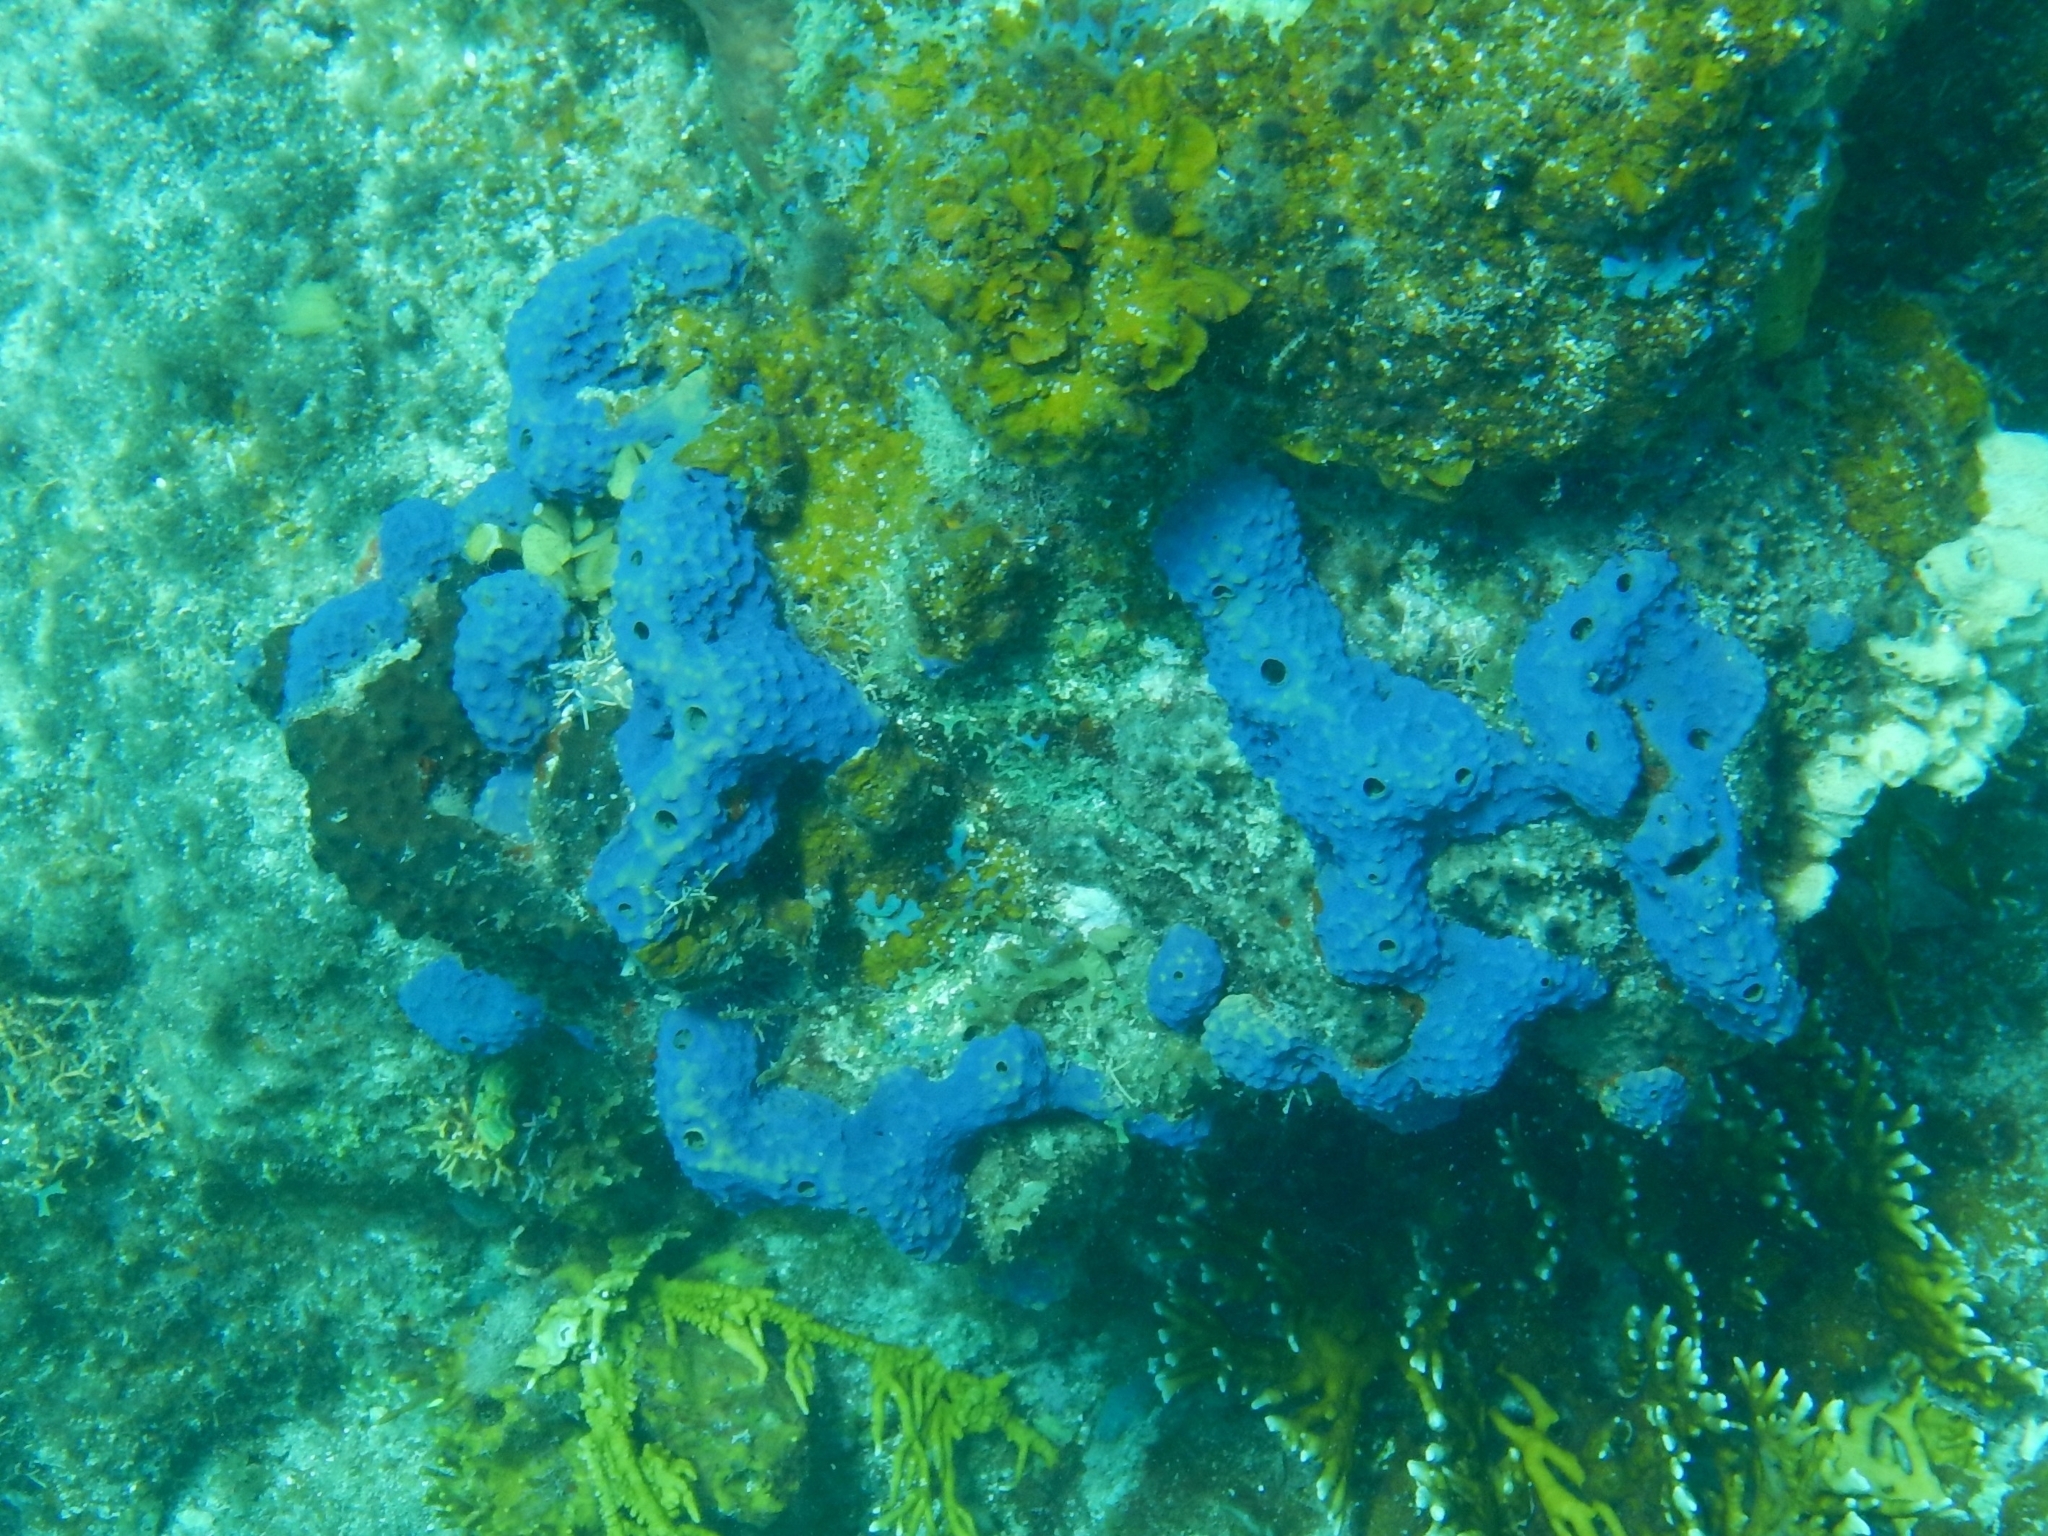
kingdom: Animalia
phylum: Porifera
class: Demospongiae
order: Verongiida
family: Aplysinidae
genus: Aiolochroia
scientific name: Aiolochroia crassa
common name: Branching tube sponge
